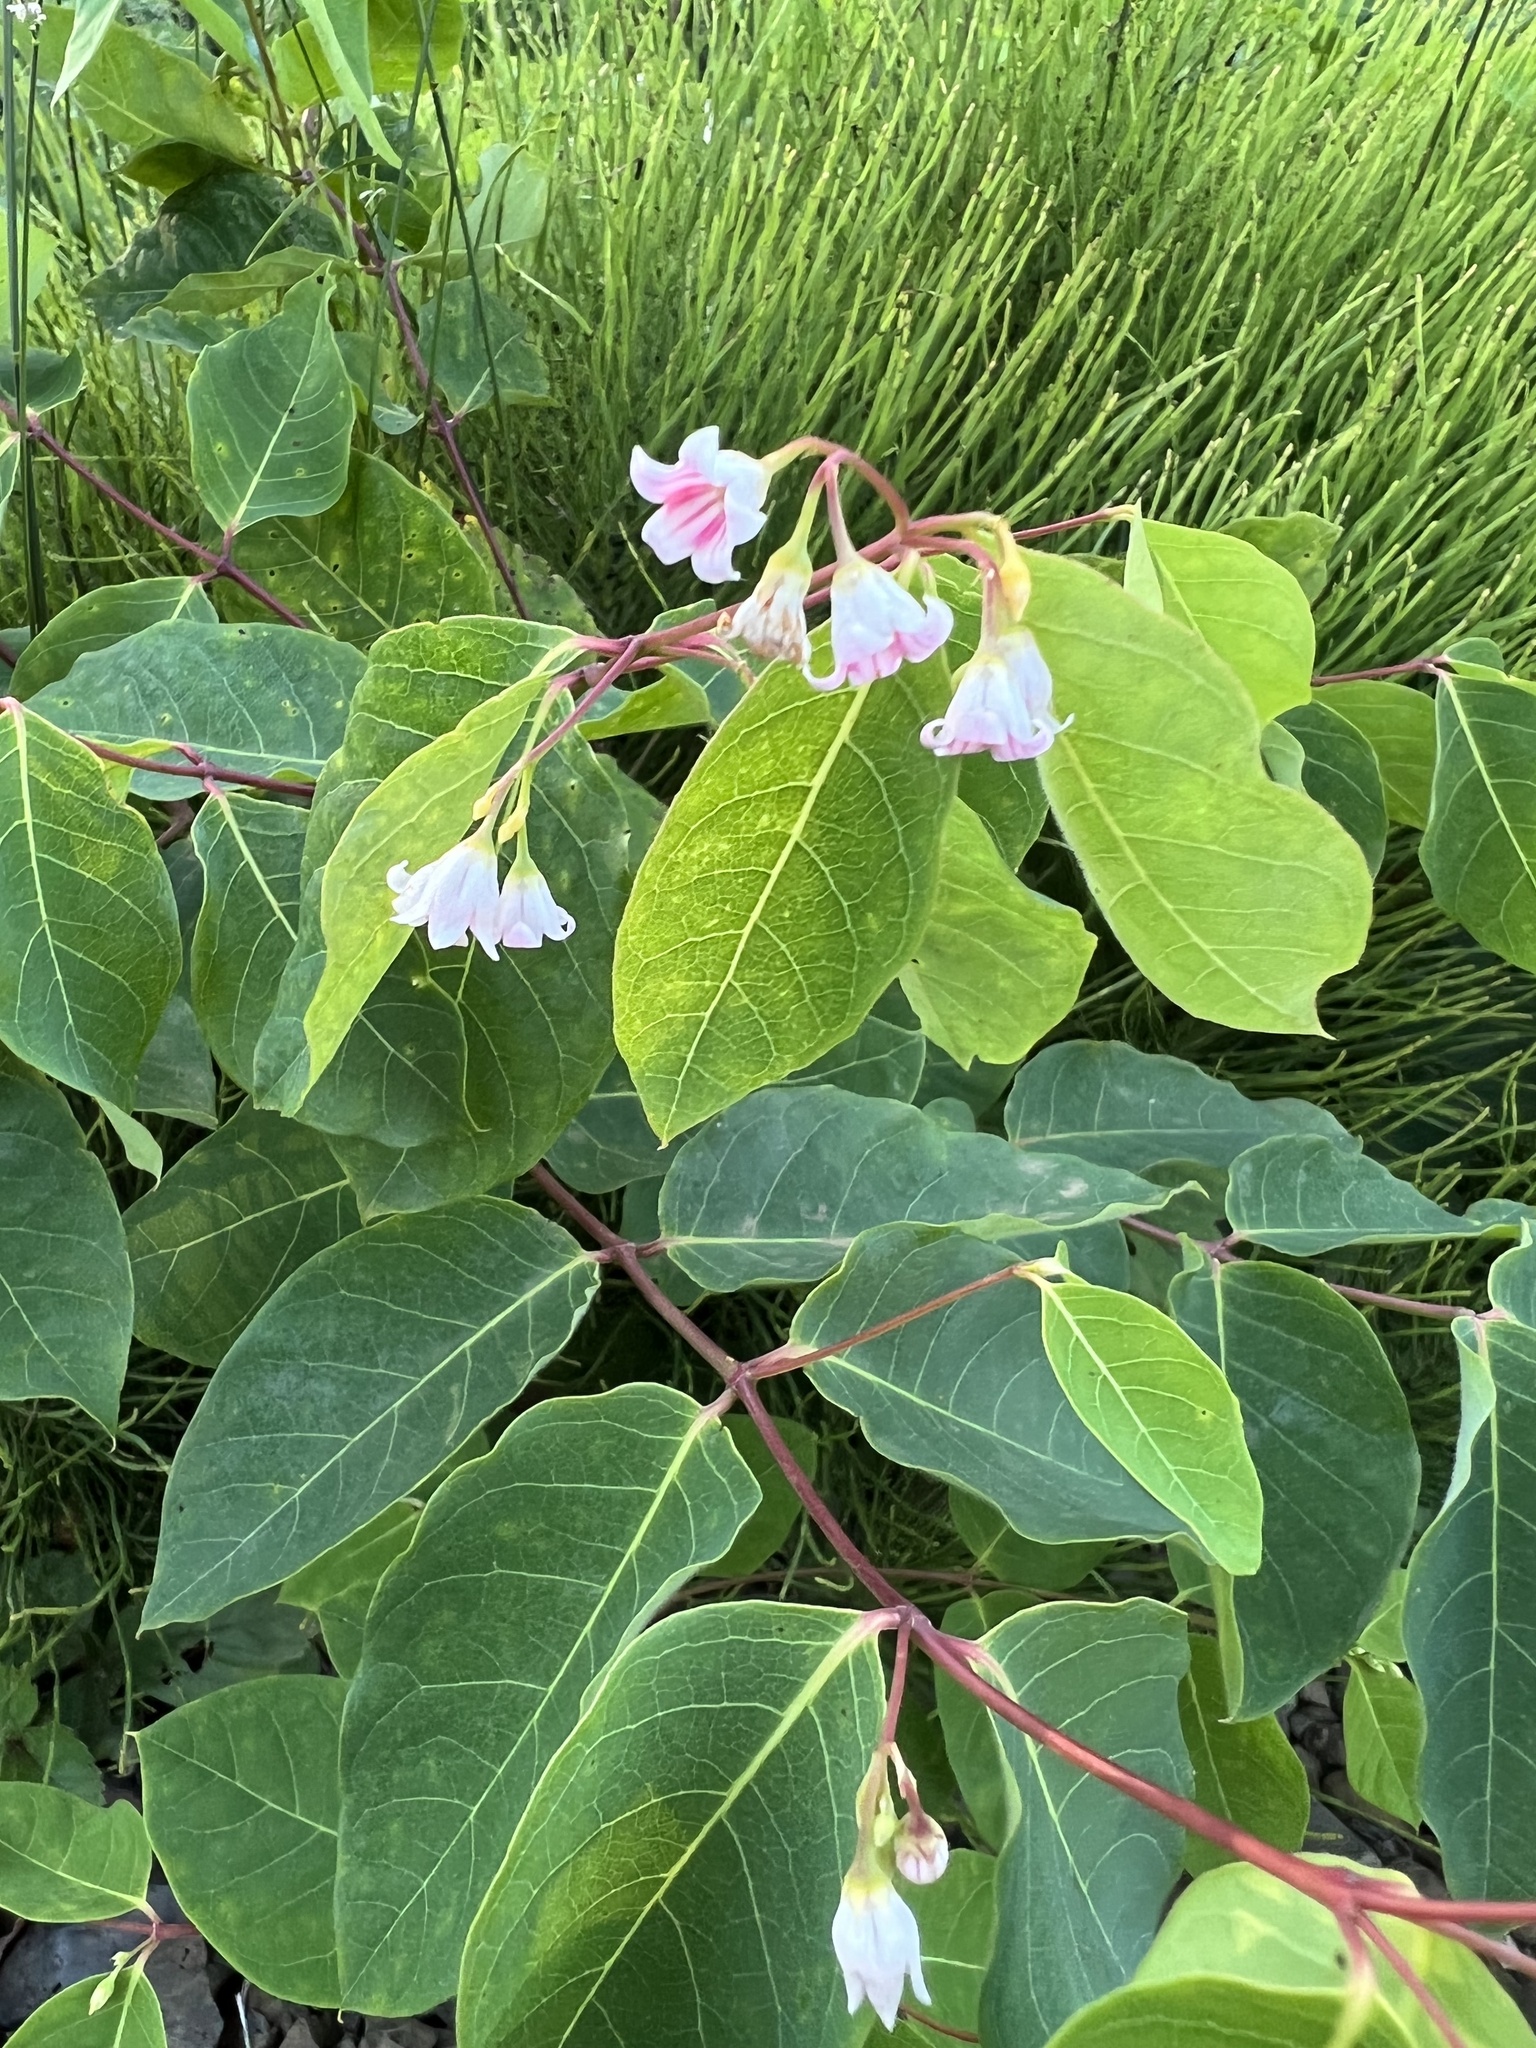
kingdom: Plantae
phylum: Tracheophyta
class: Magnoliopsida
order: Gentianales
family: Apocynaceae
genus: Apocynum
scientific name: Apocynum androsaemifolium
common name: Spreading dogbane
